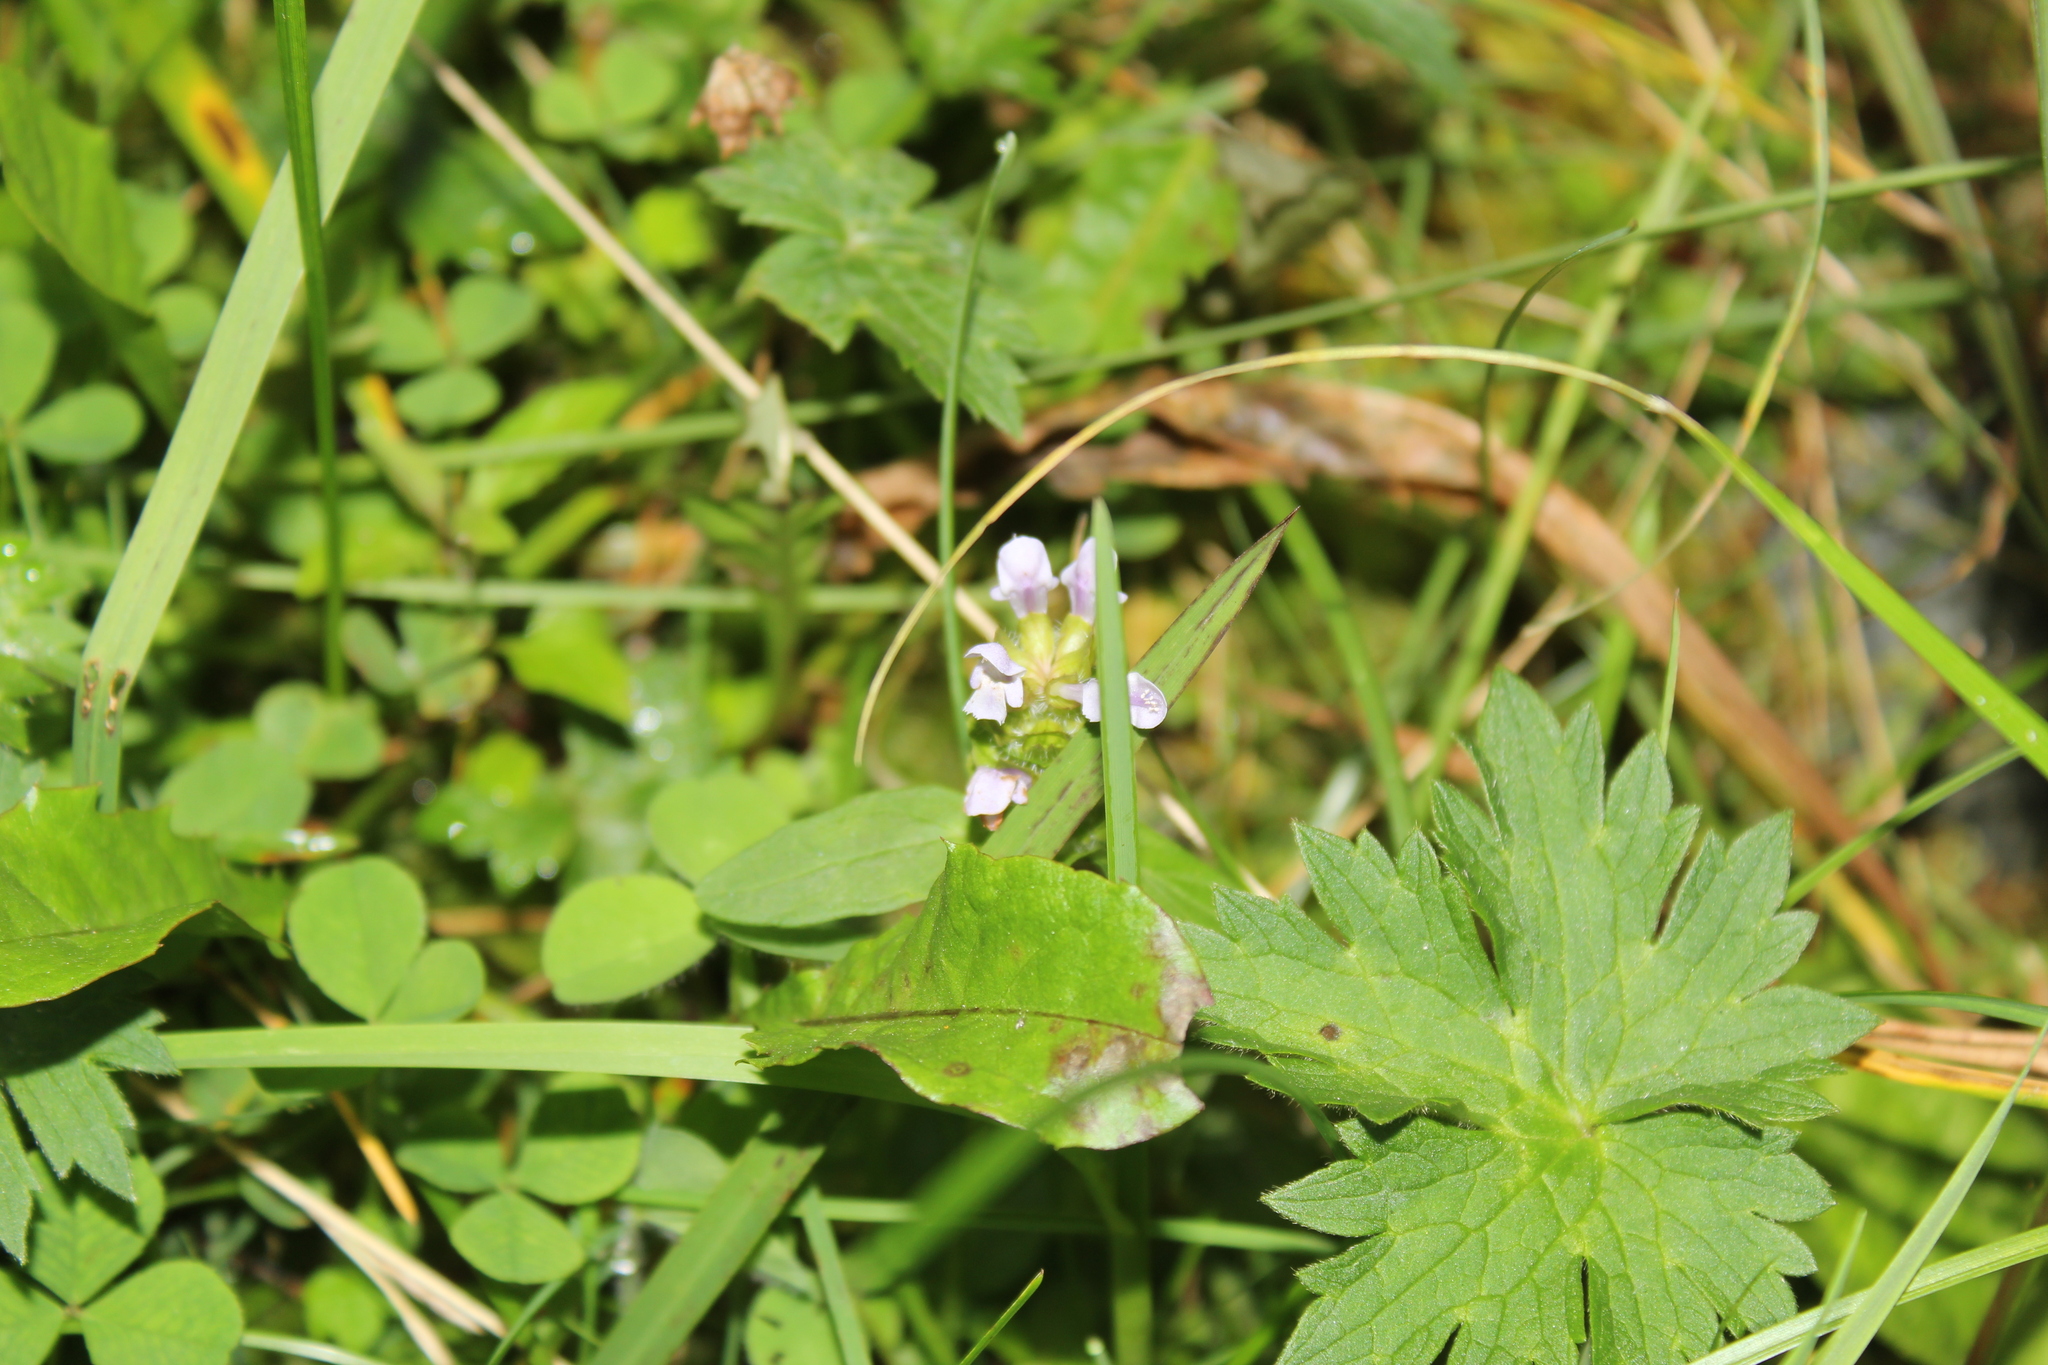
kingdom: Plantae
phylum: Tracheophyta
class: Magnoliopsida
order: Lamiales
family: Lamiaceae
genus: Prunella
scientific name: Prunella vulgaris
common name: Heal-all
